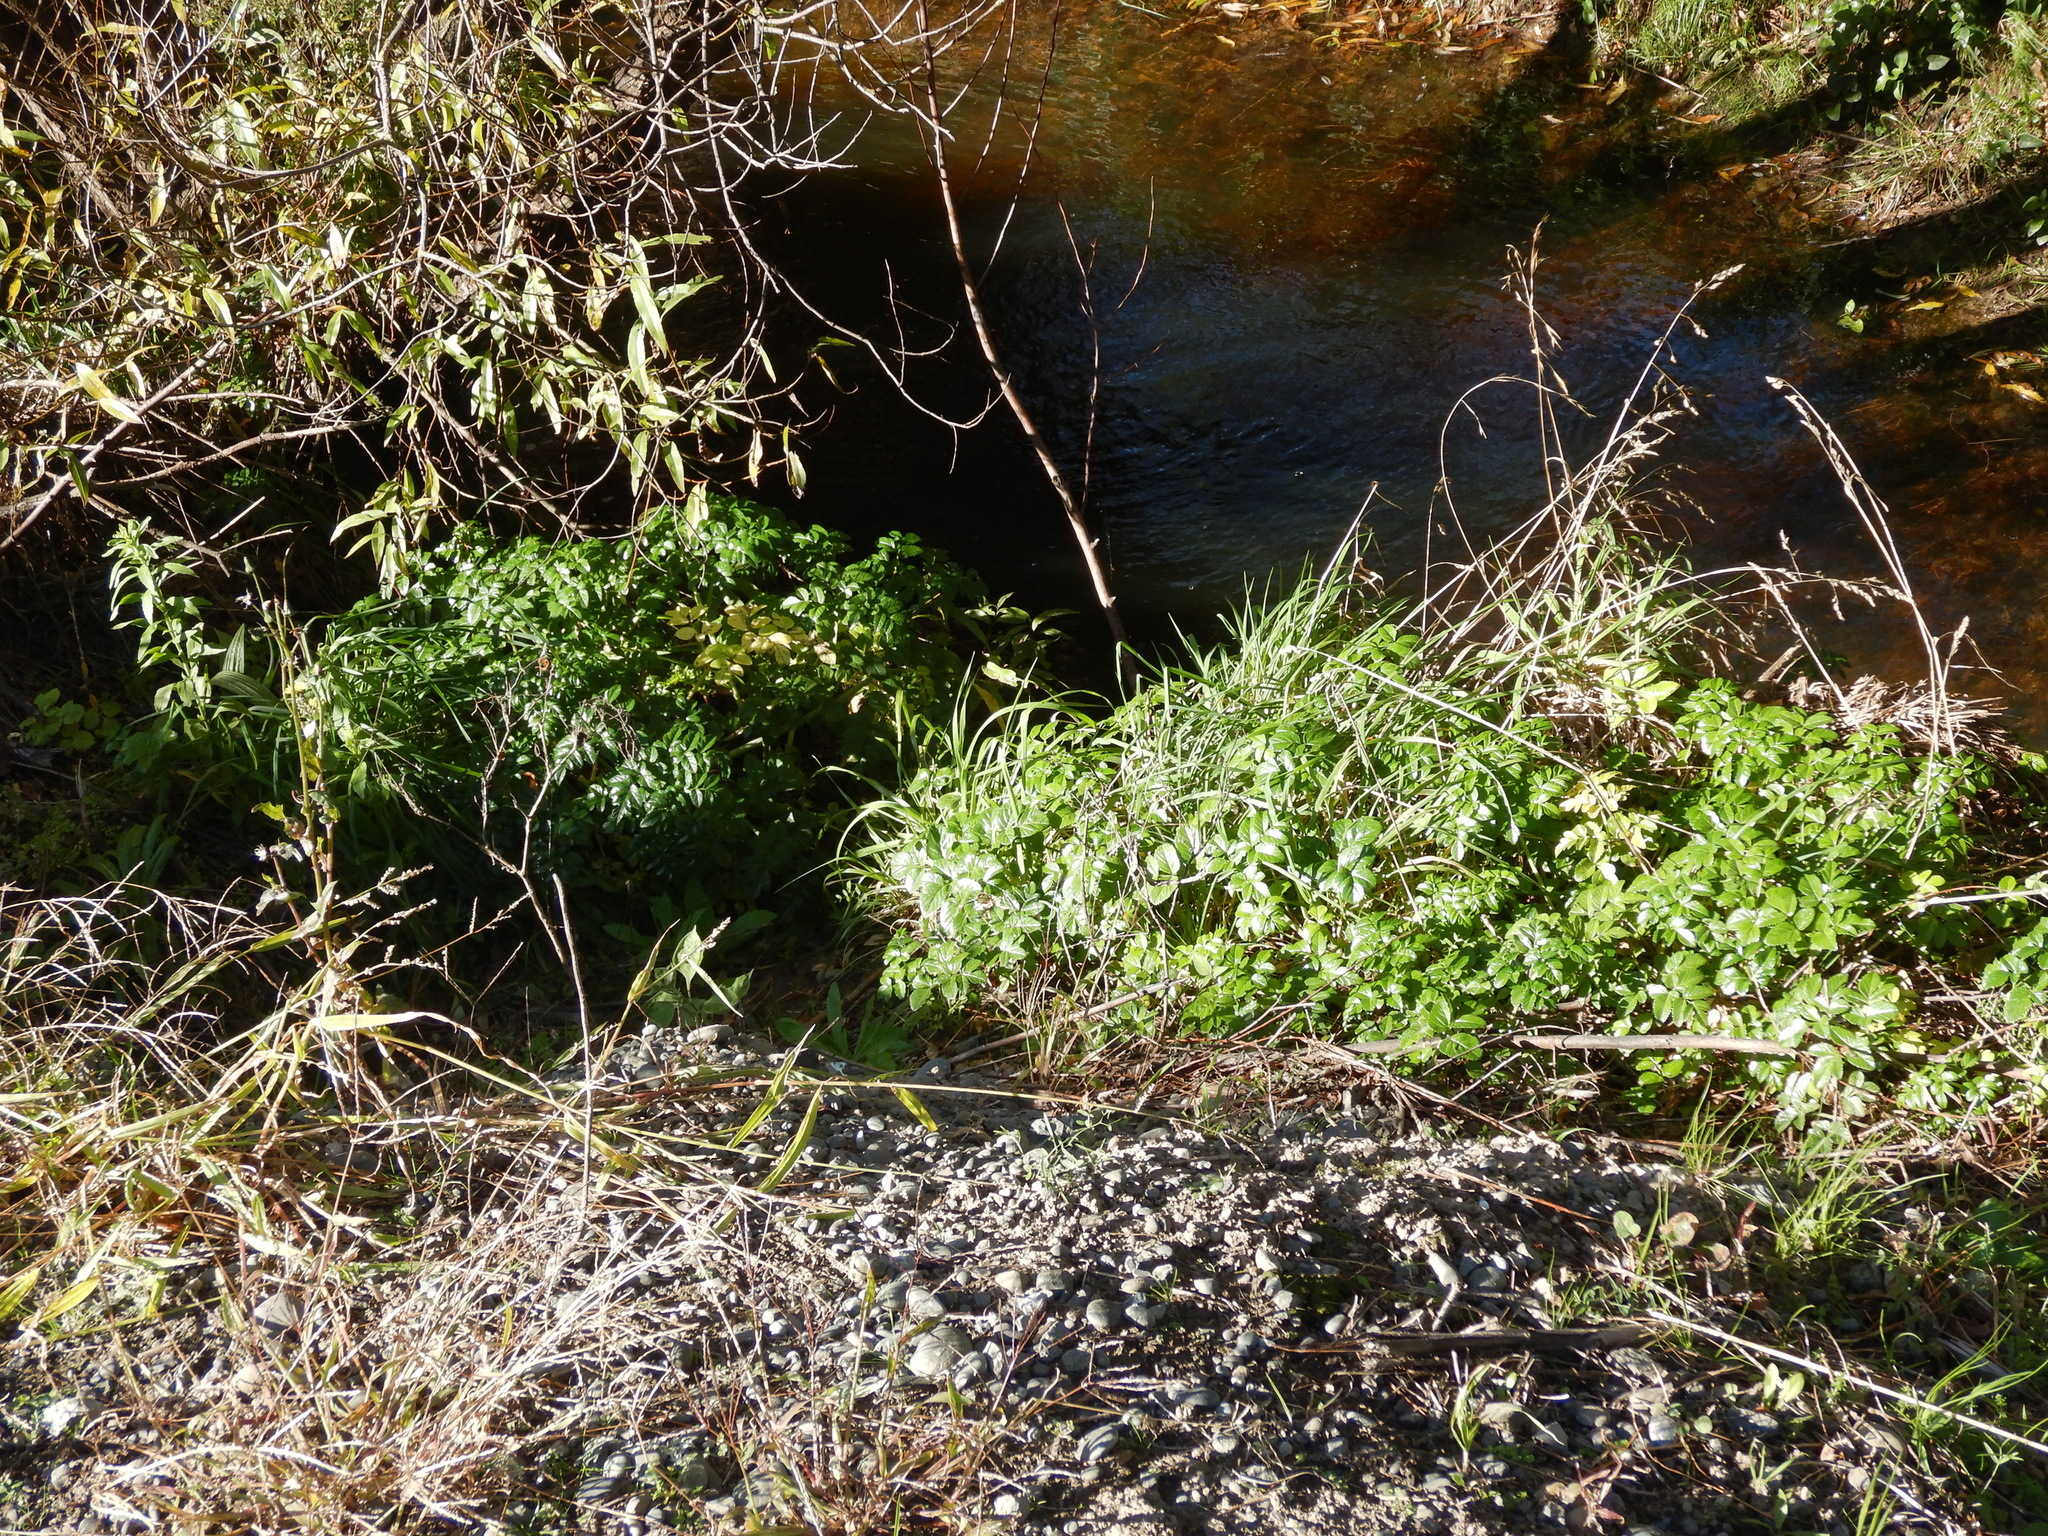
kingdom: Plantae
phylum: Tracheophyta
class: Magnoliopsida
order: Apiales
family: Apiaceae
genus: Angelica
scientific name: Angelica pachycarpa
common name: Portuguese angelica
